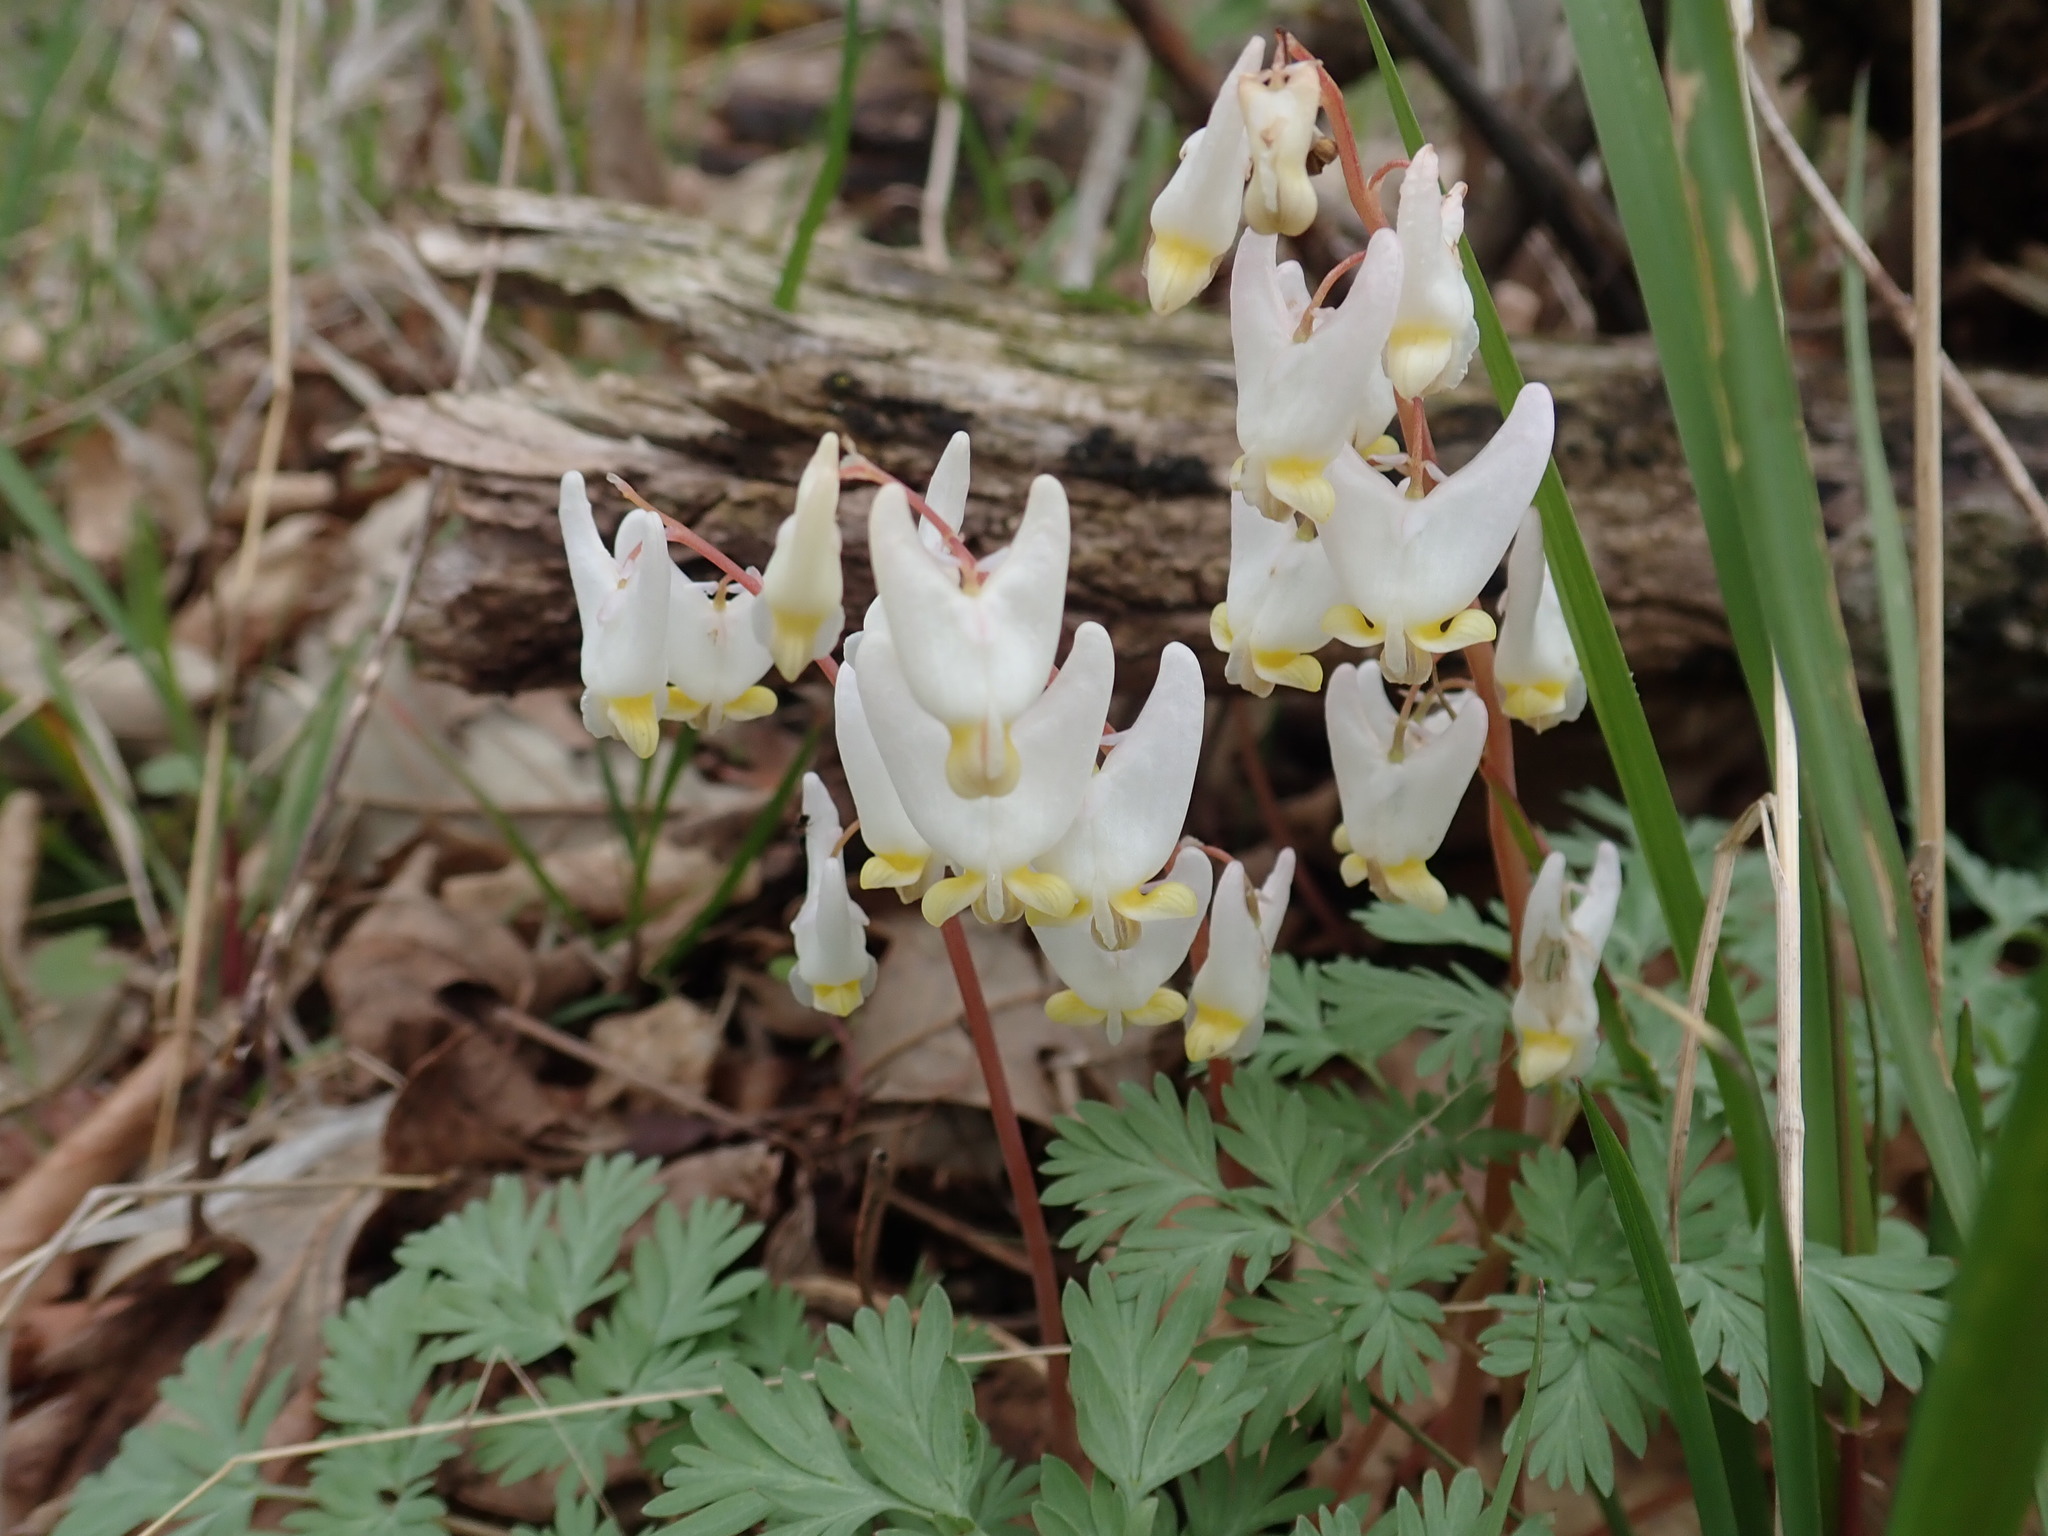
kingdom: Plantae
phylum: Tracheophyta
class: Magnoliopsida
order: Ranunculales
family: Papaveraceae
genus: Dicentra
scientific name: Dicentra cucullaria
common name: Dutchman's breeches
